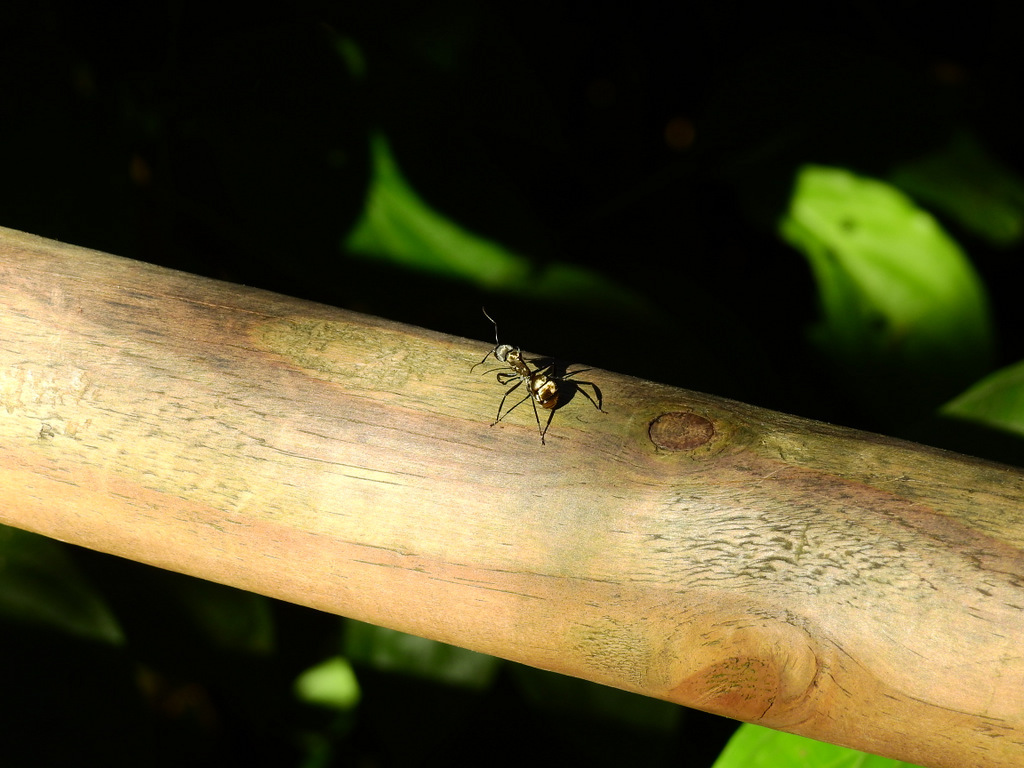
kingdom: Animalia
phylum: Arthropoda
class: Insecta
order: Hymenoptera
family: Formicidae
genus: Camponotus
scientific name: Camponotus sericeiventris
